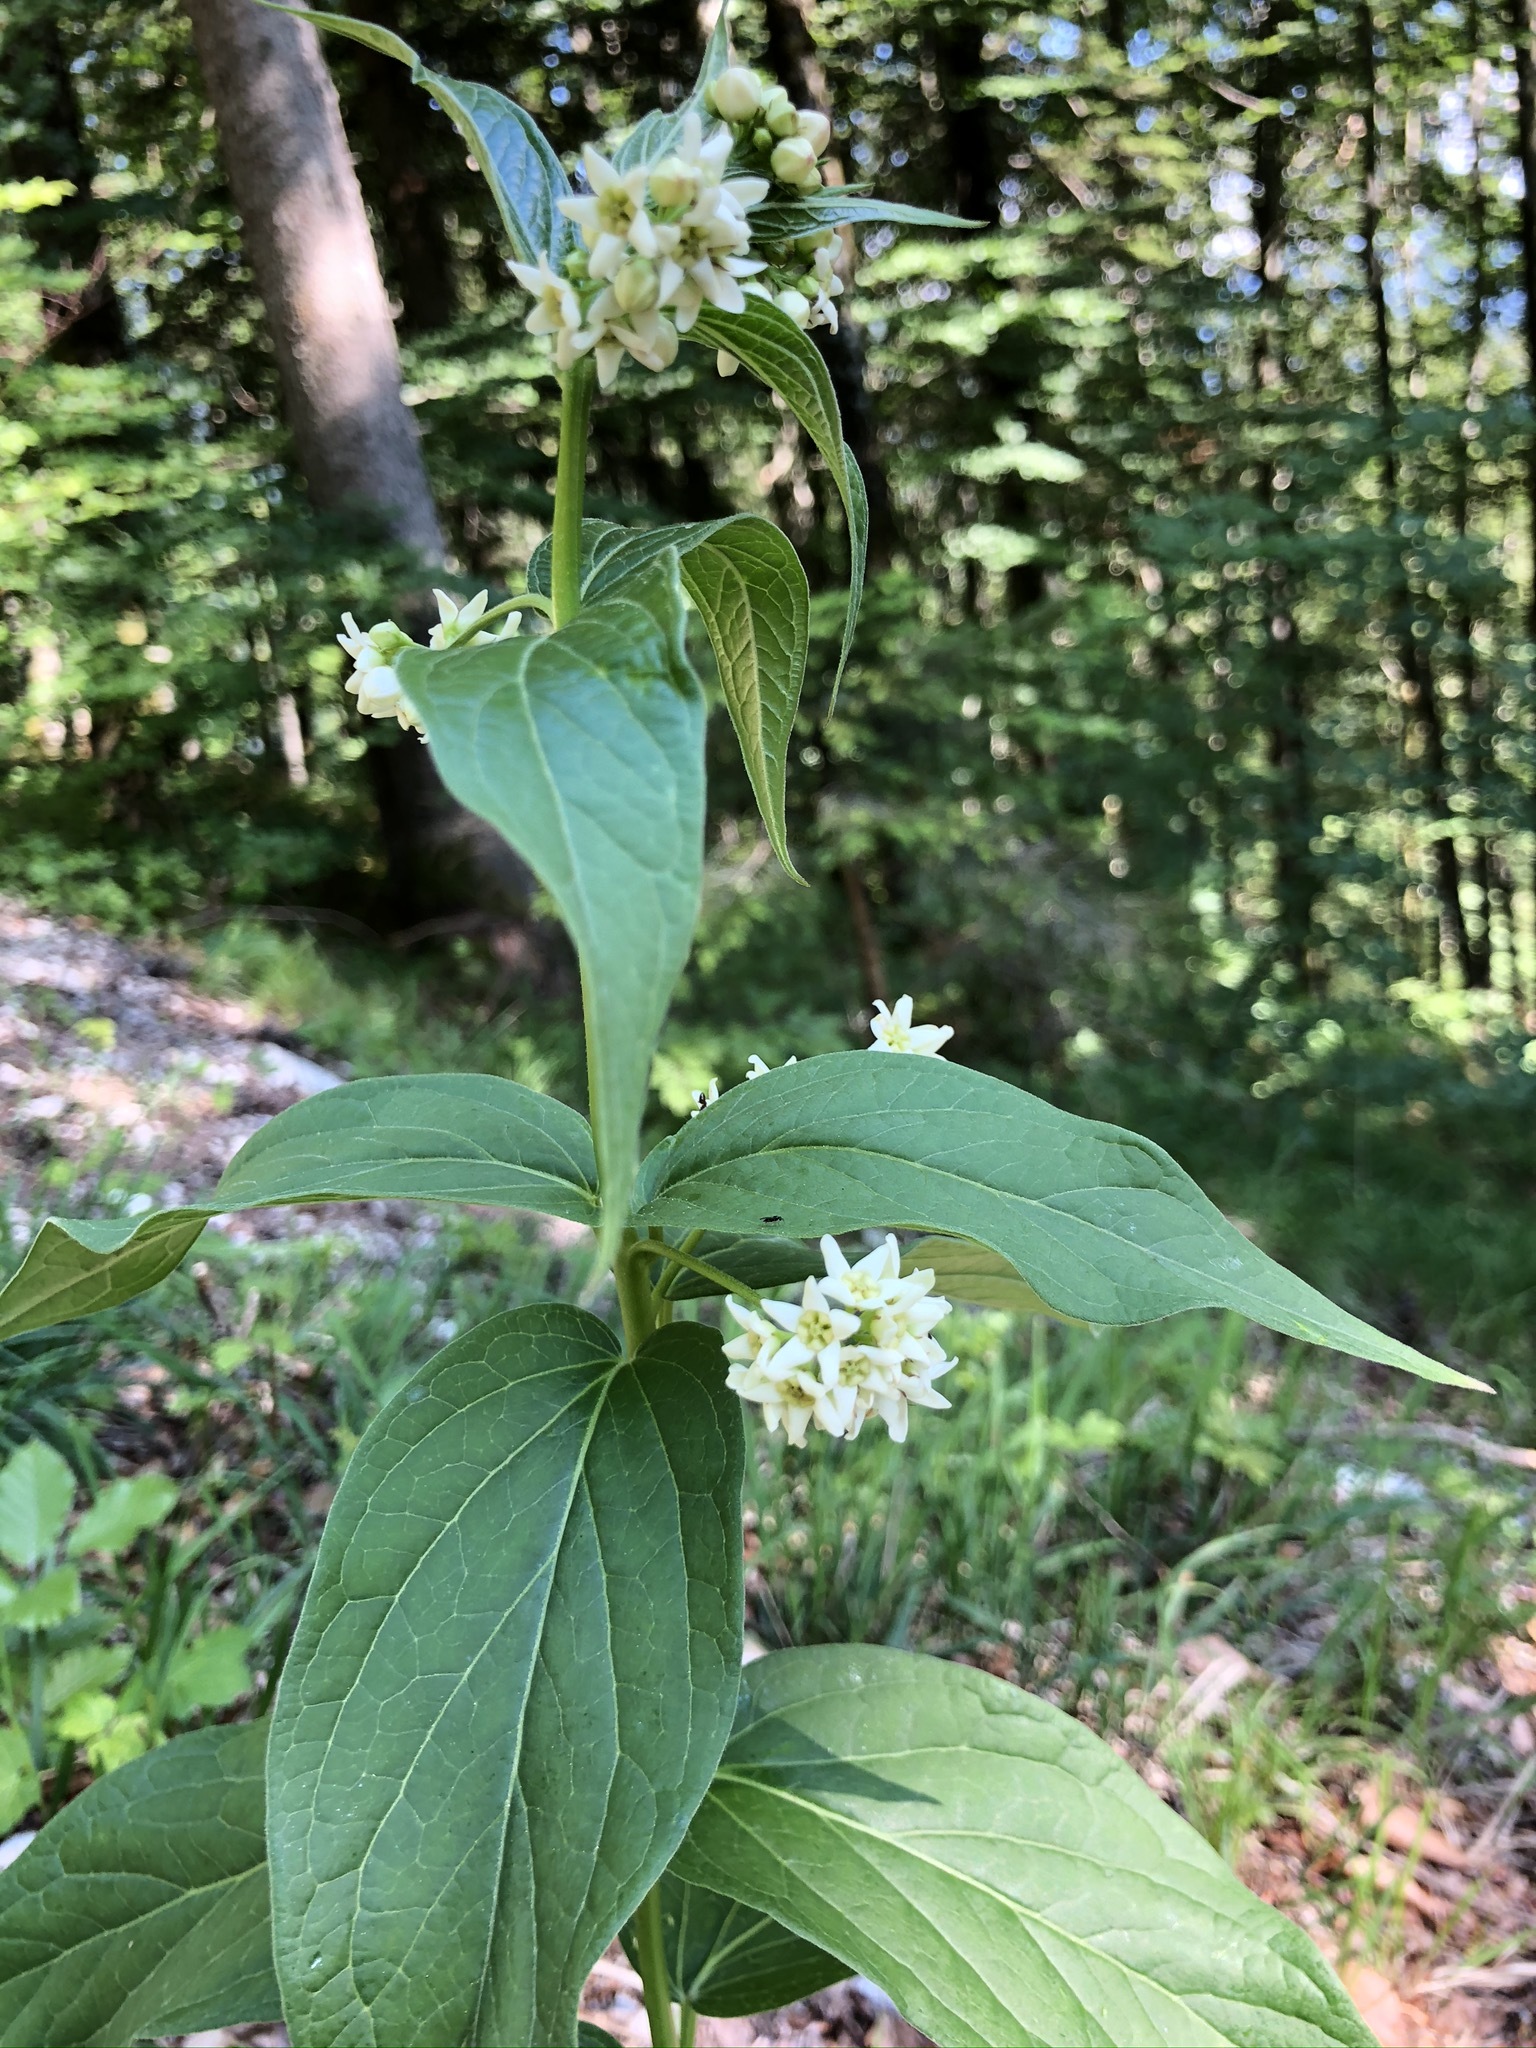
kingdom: Plantae
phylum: Tracheophyta
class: Magnoliopsida
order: Gentianales
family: Apocynaceae
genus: Vincetoxicum
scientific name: Vincetoxicum hirundinaria
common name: White swallowwort
